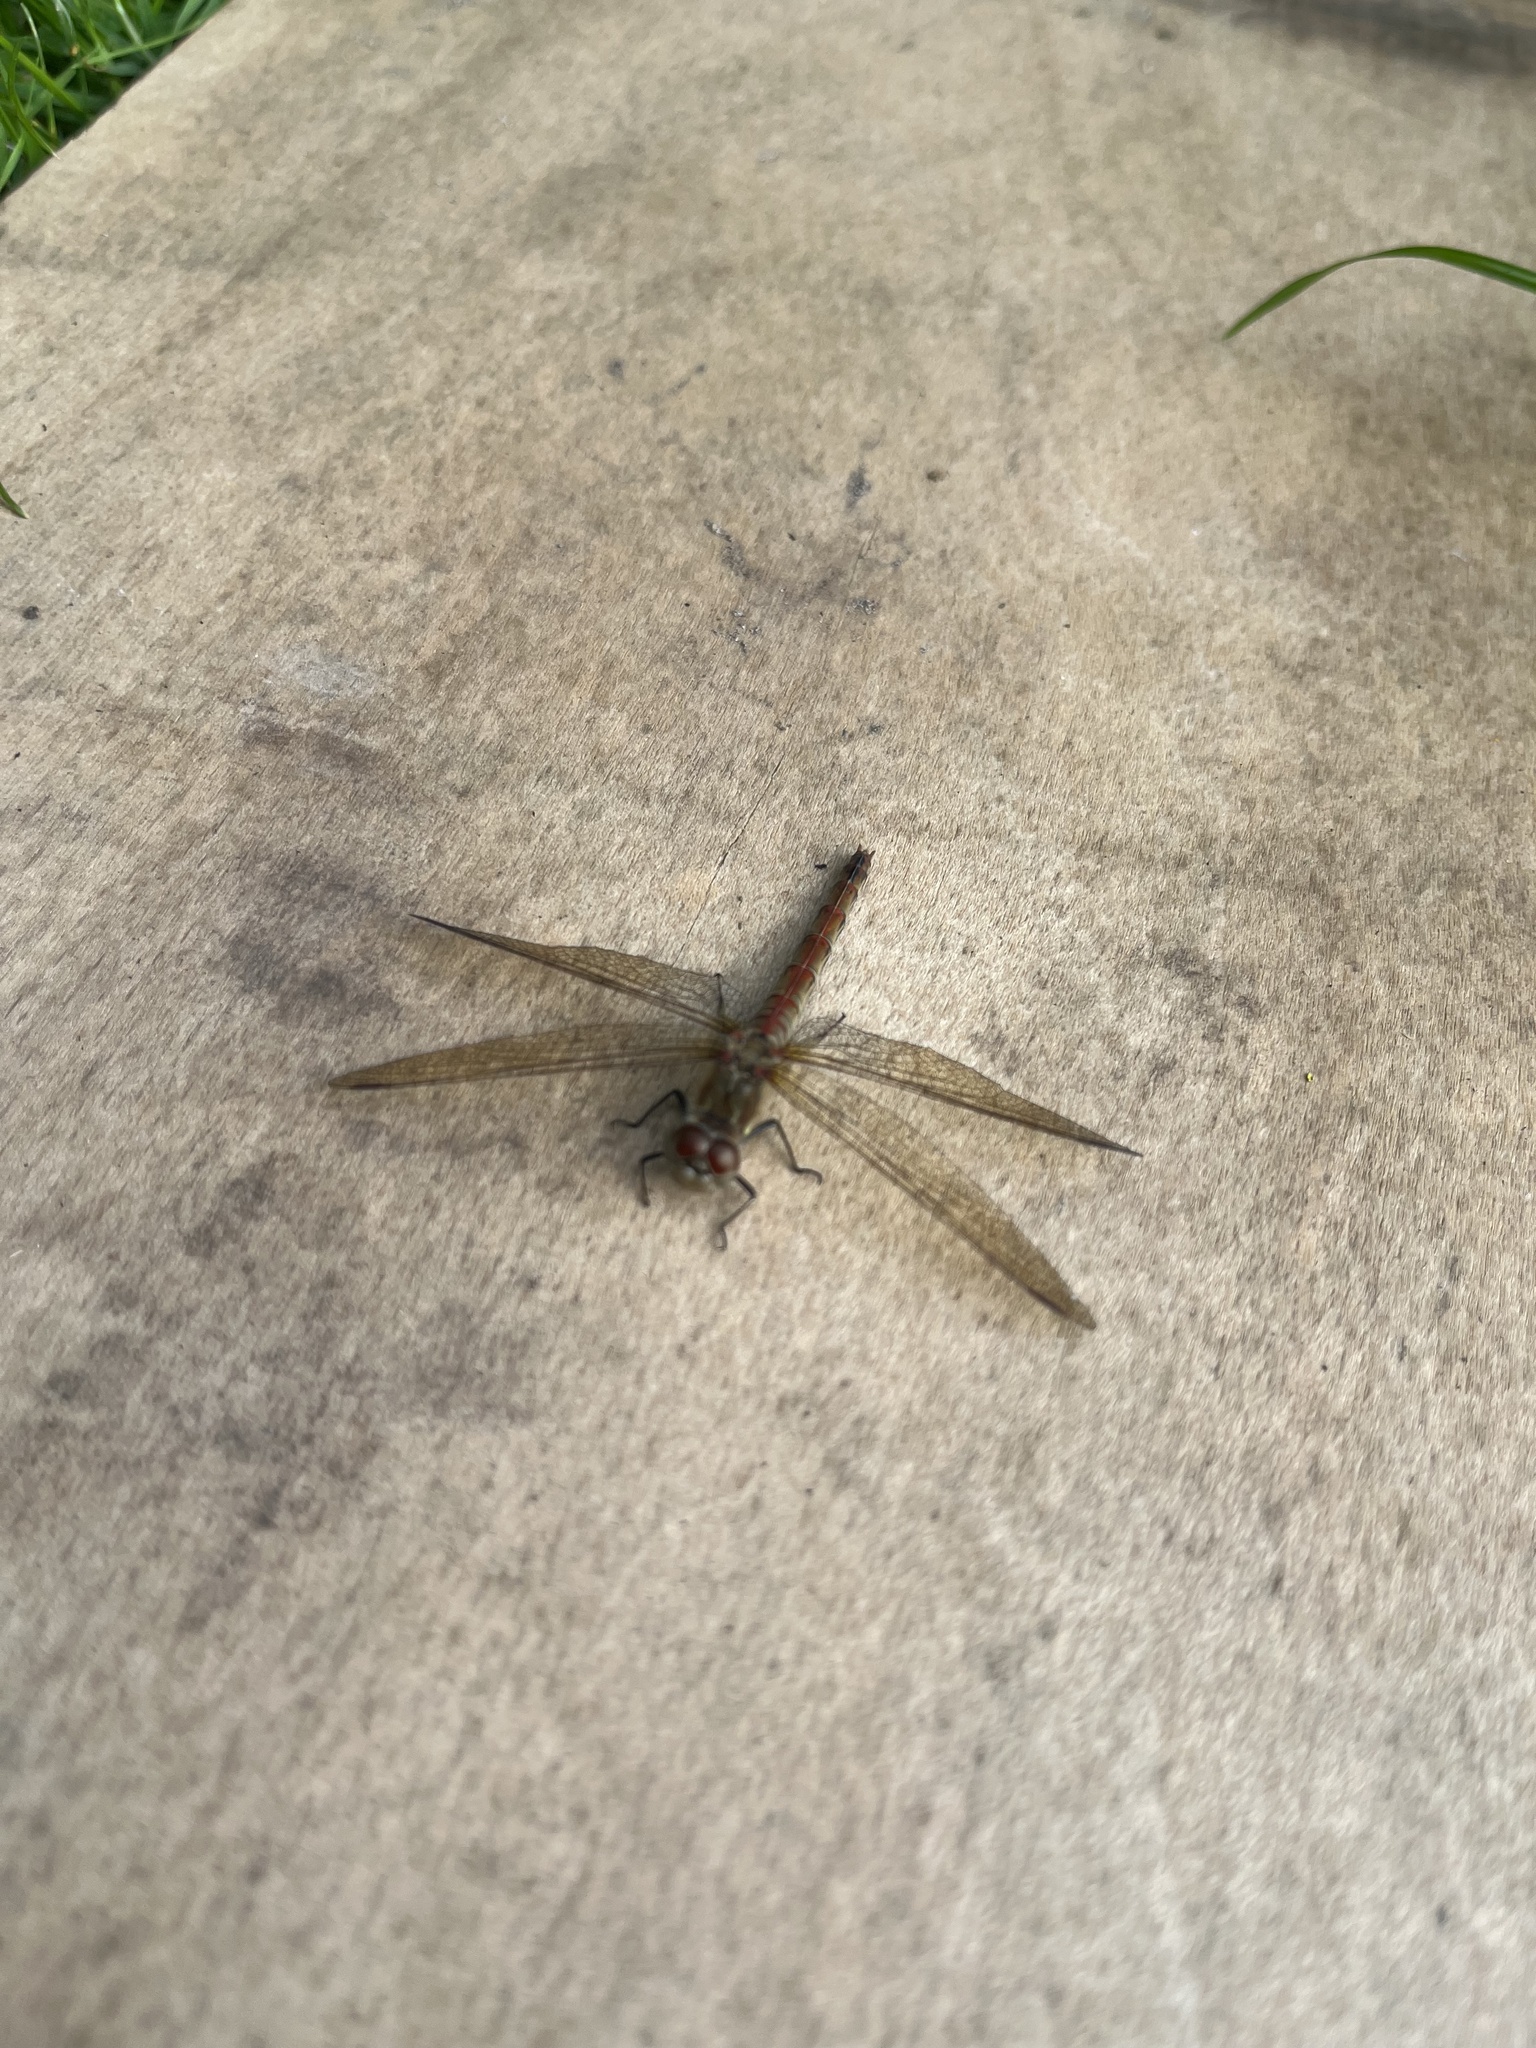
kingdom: Animalia
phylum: Arthropoda
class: Insecta
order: Odonata
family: Libellulidae
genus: Sympetrum
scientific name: Sympetrum striolatum
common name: Common darter
